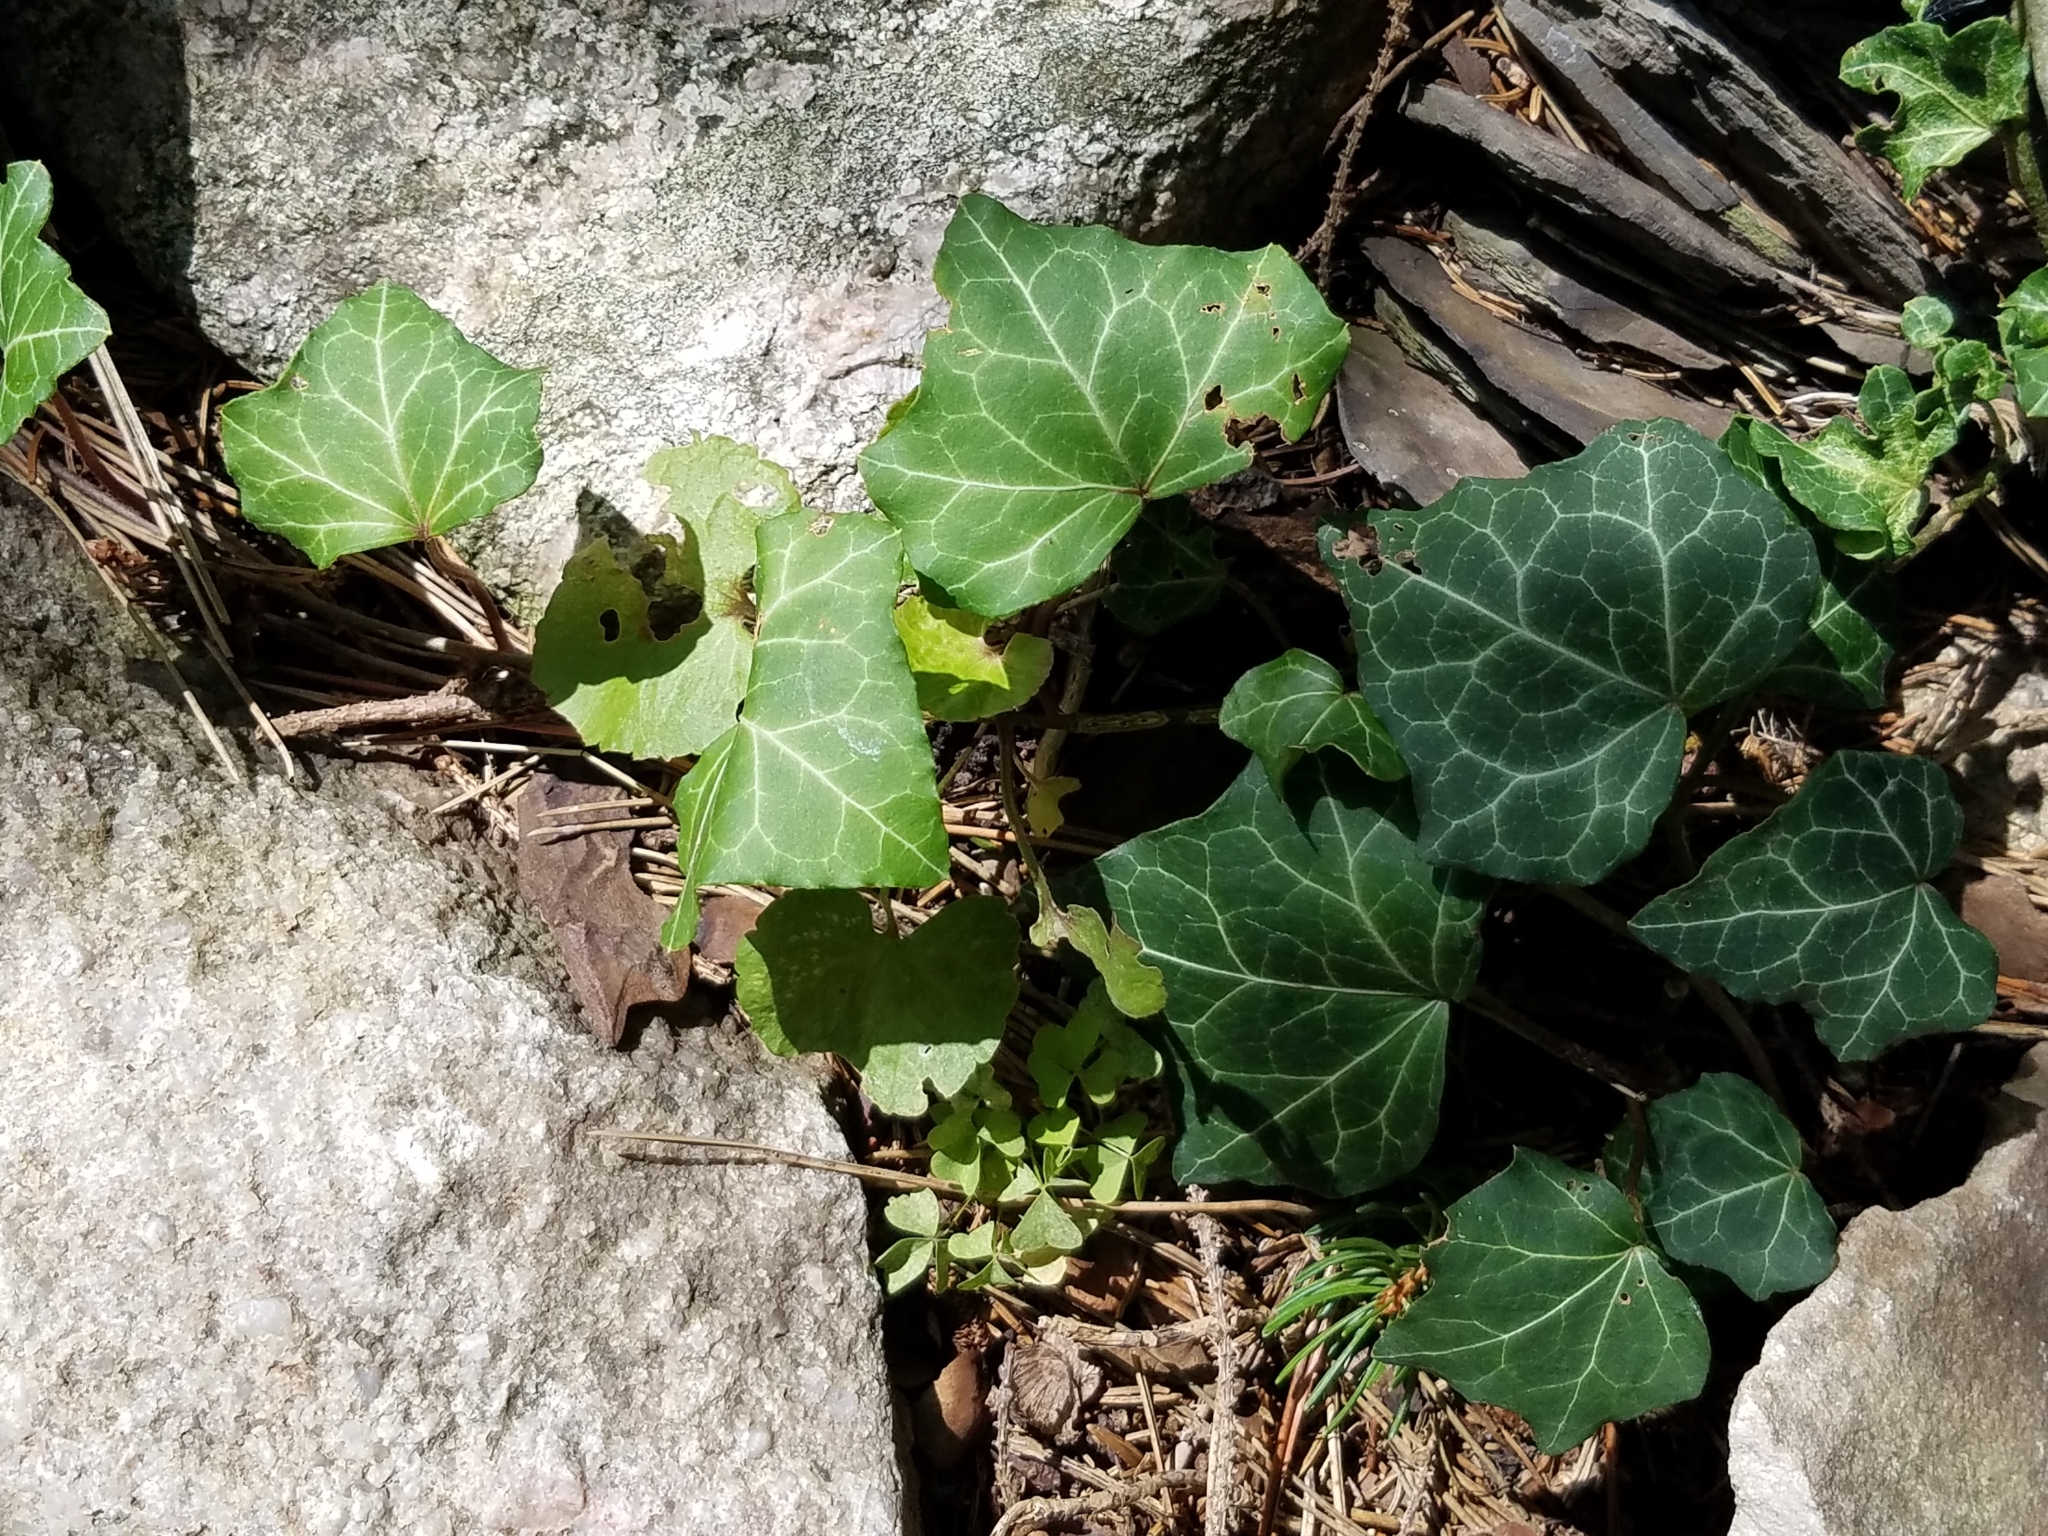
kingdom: Plantae
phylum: Tracheophyta
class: Magnoliopsida
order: Apiales
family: Araliaceae
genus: Hedera
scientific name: Hedera helix
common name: Ivy
